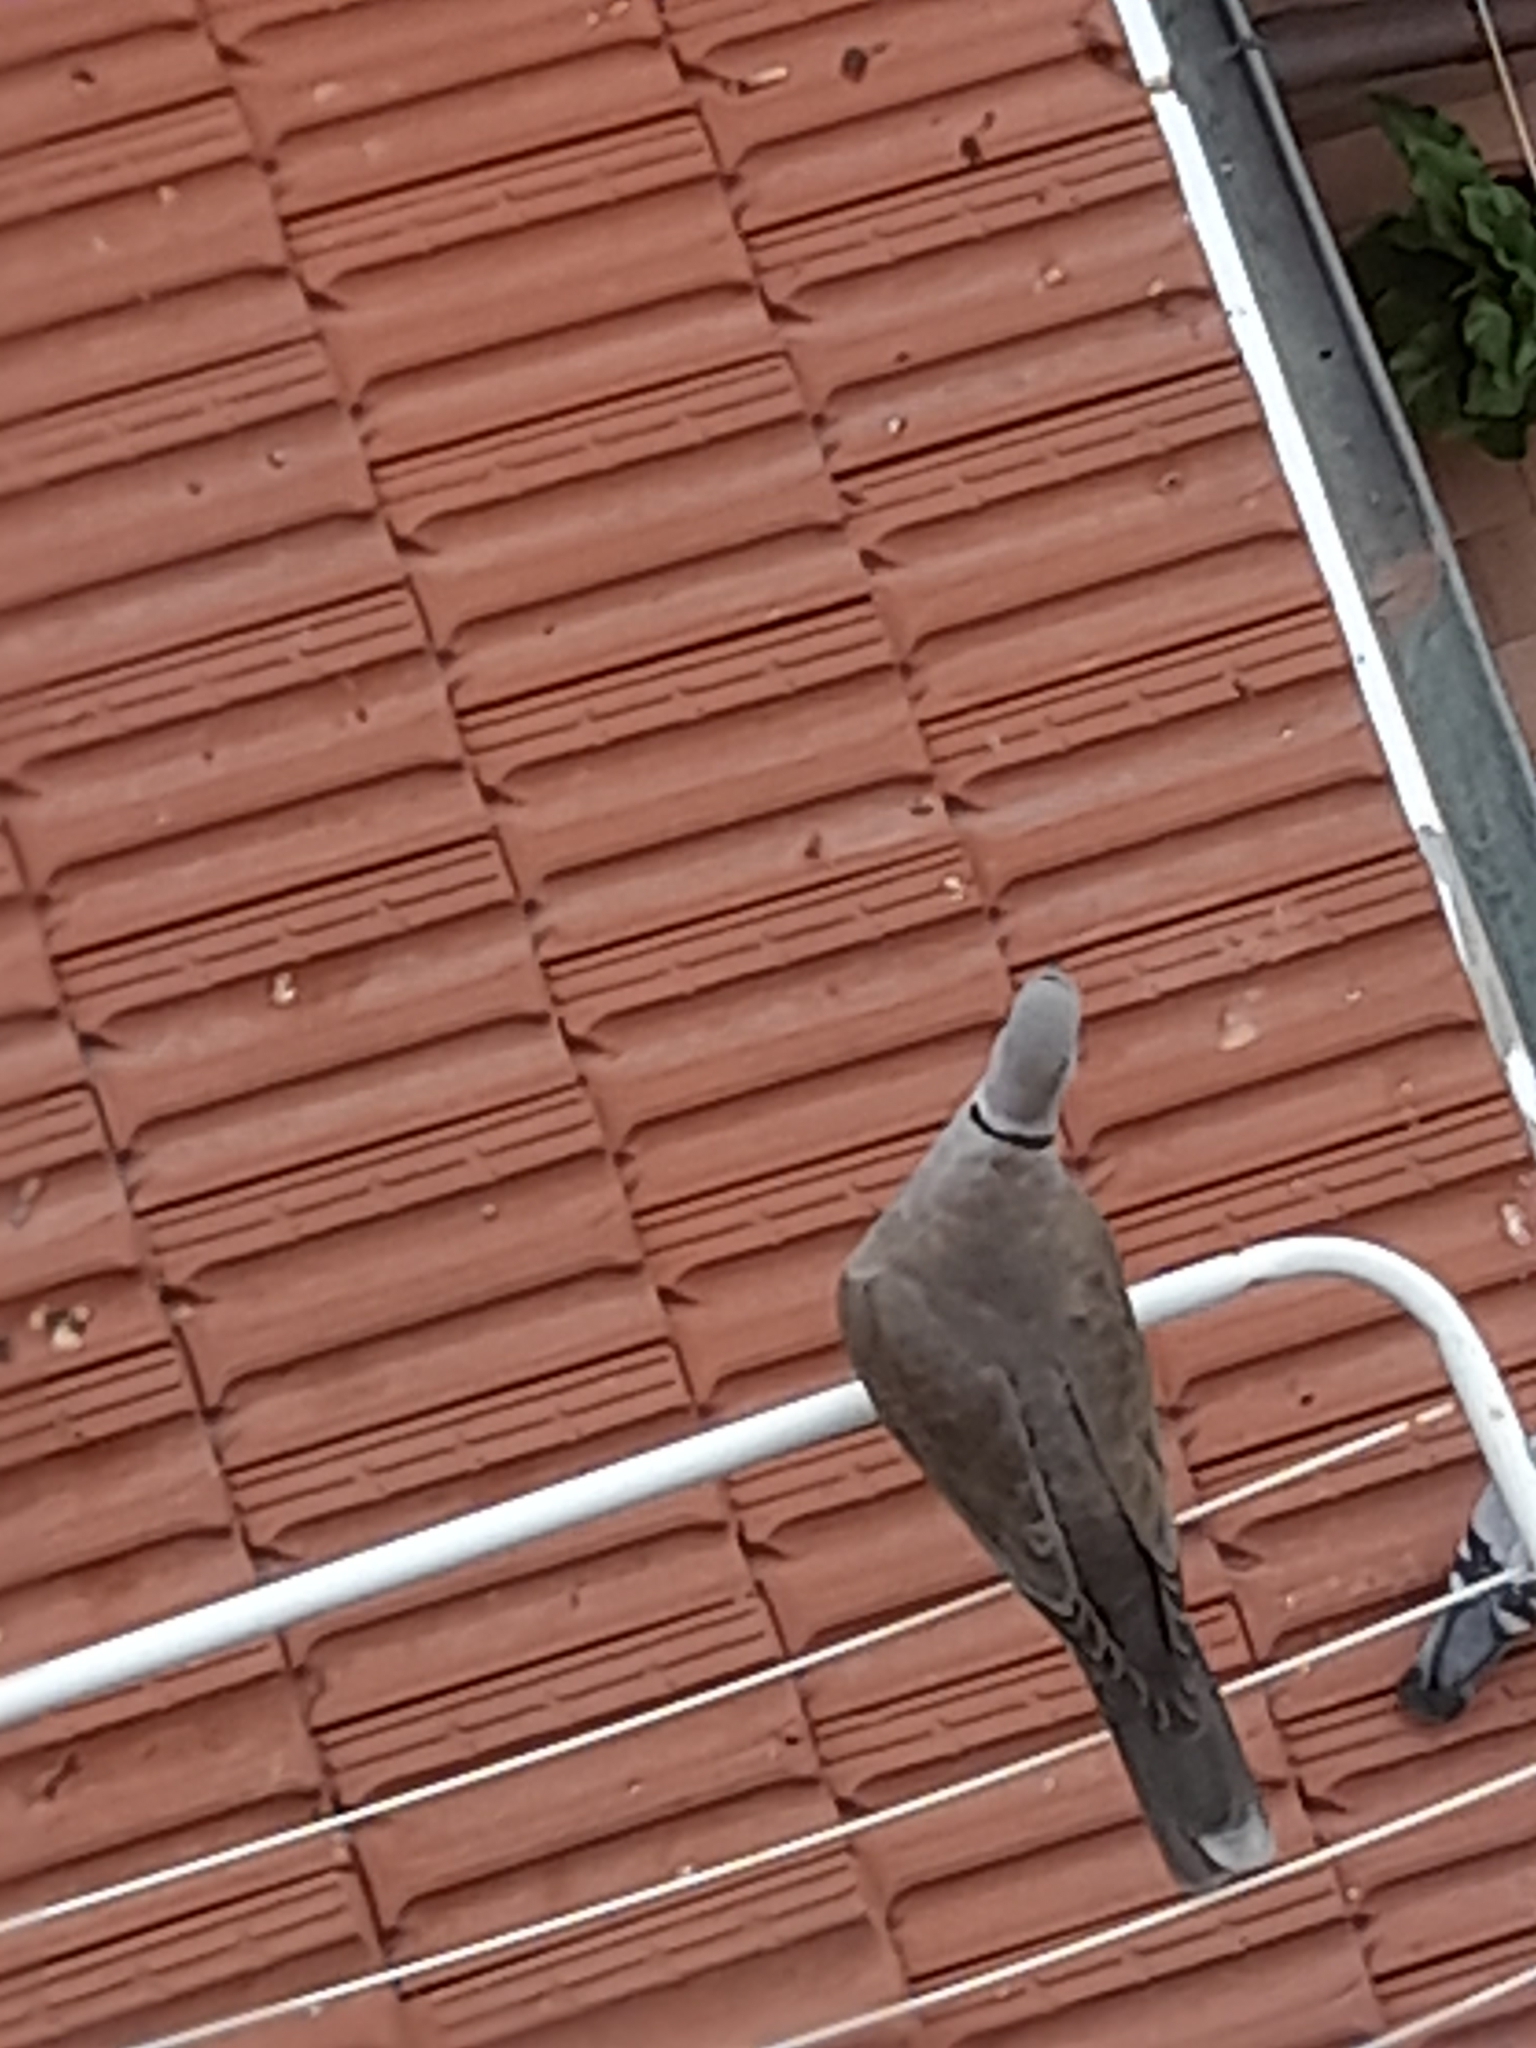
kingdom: Animalia
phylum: Chordata
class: Aves
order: Columbiformes
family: Columbidae
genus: Streptopelia
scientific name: Streptopelia decaocto
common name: Eurasian collared dove
